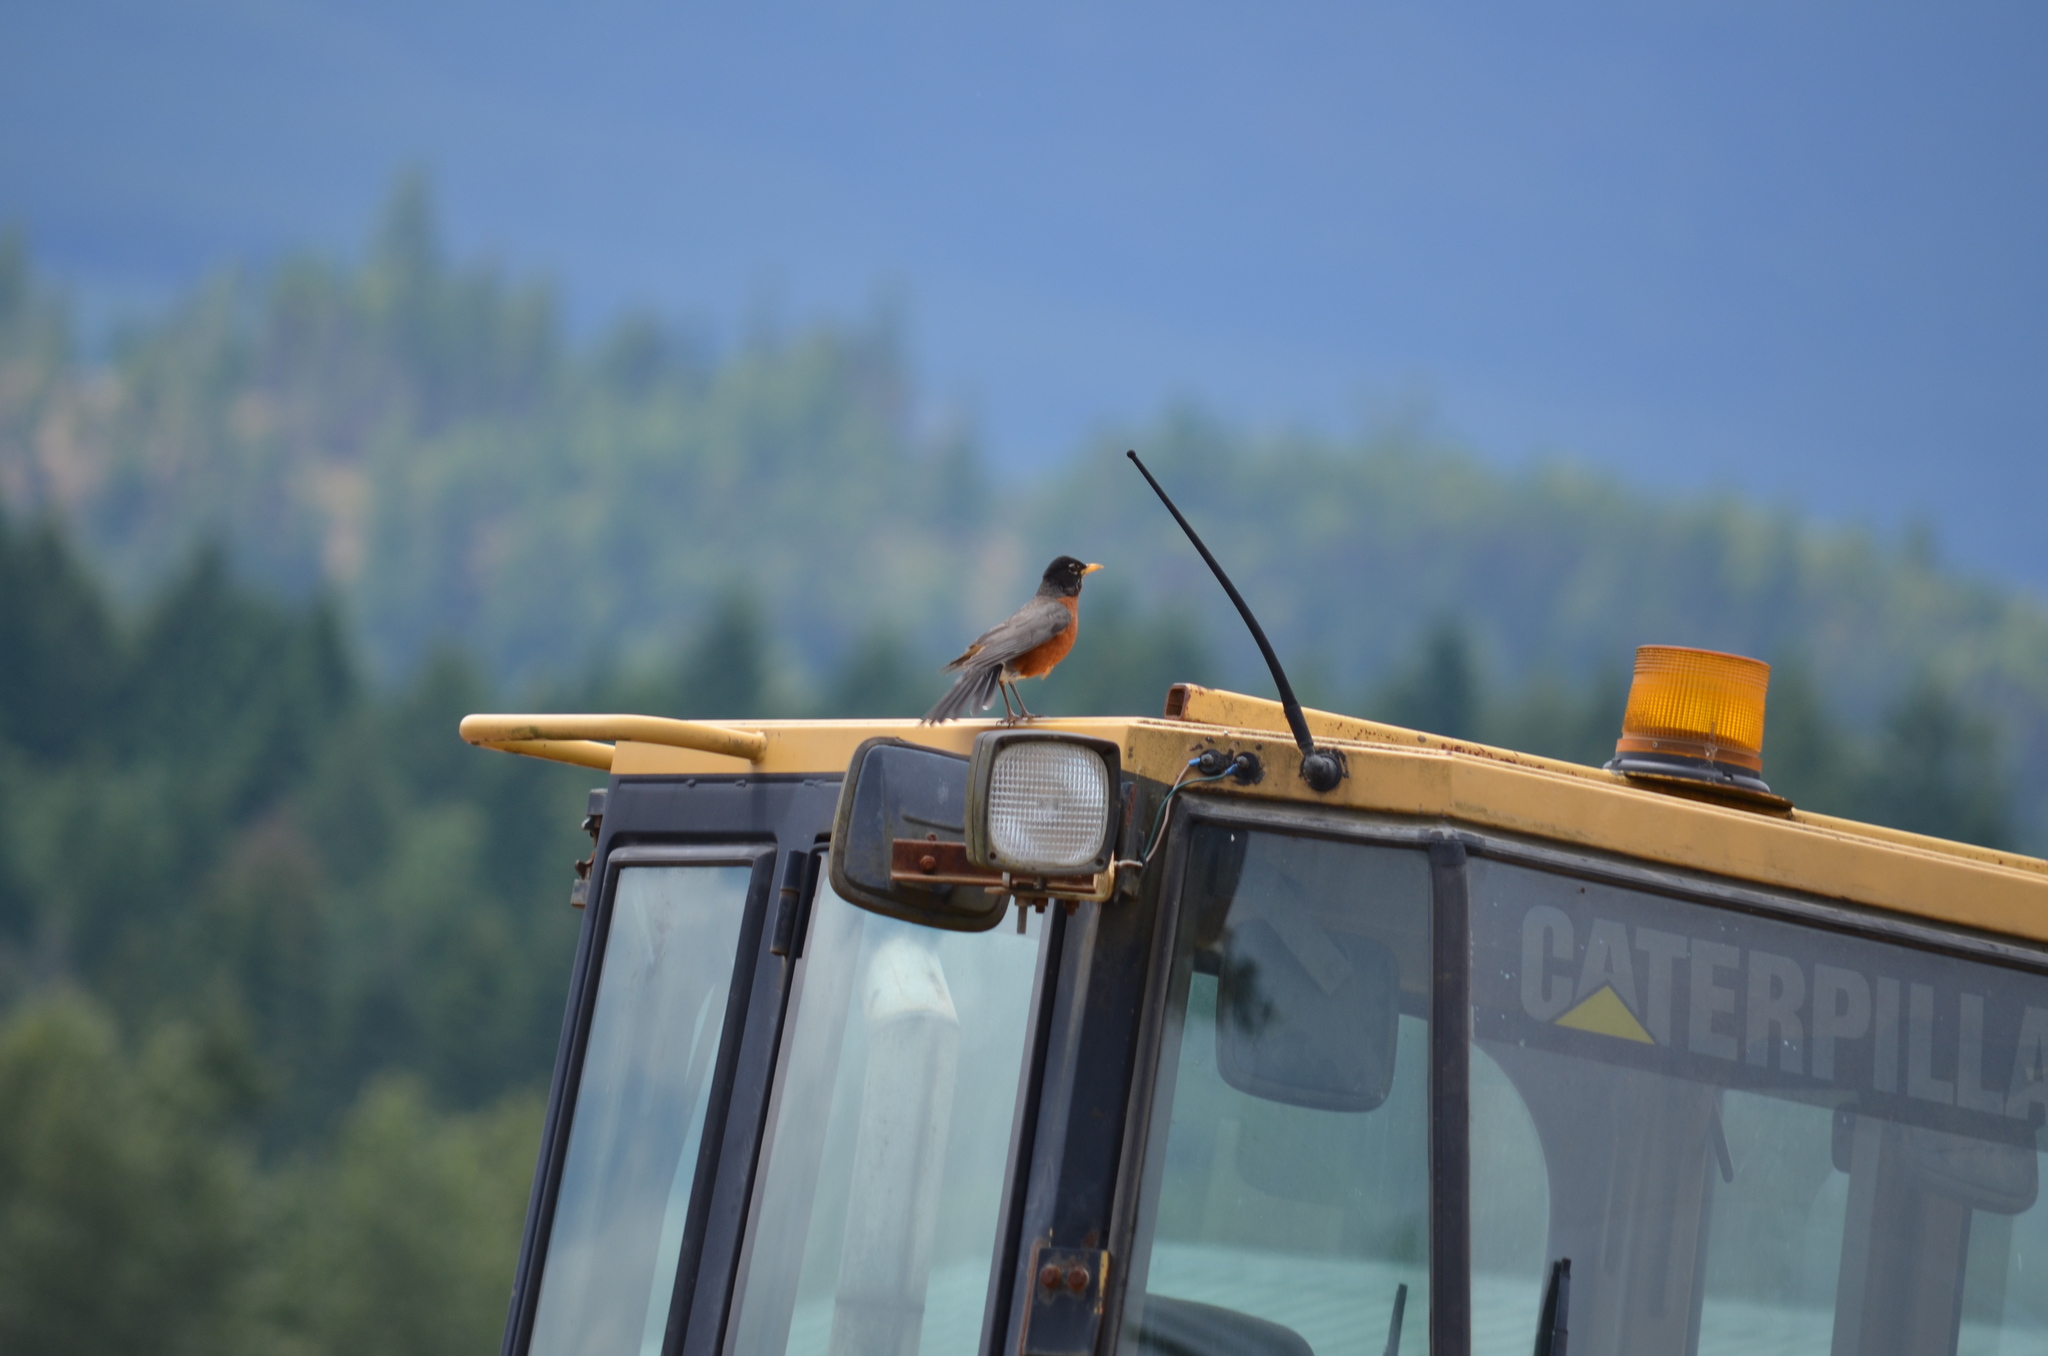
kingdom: Animalia
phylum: Chordata
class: Aves
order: Passeriformes
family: Turdidae
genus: Turdus
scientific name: Turdus migratorius
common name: American robin
